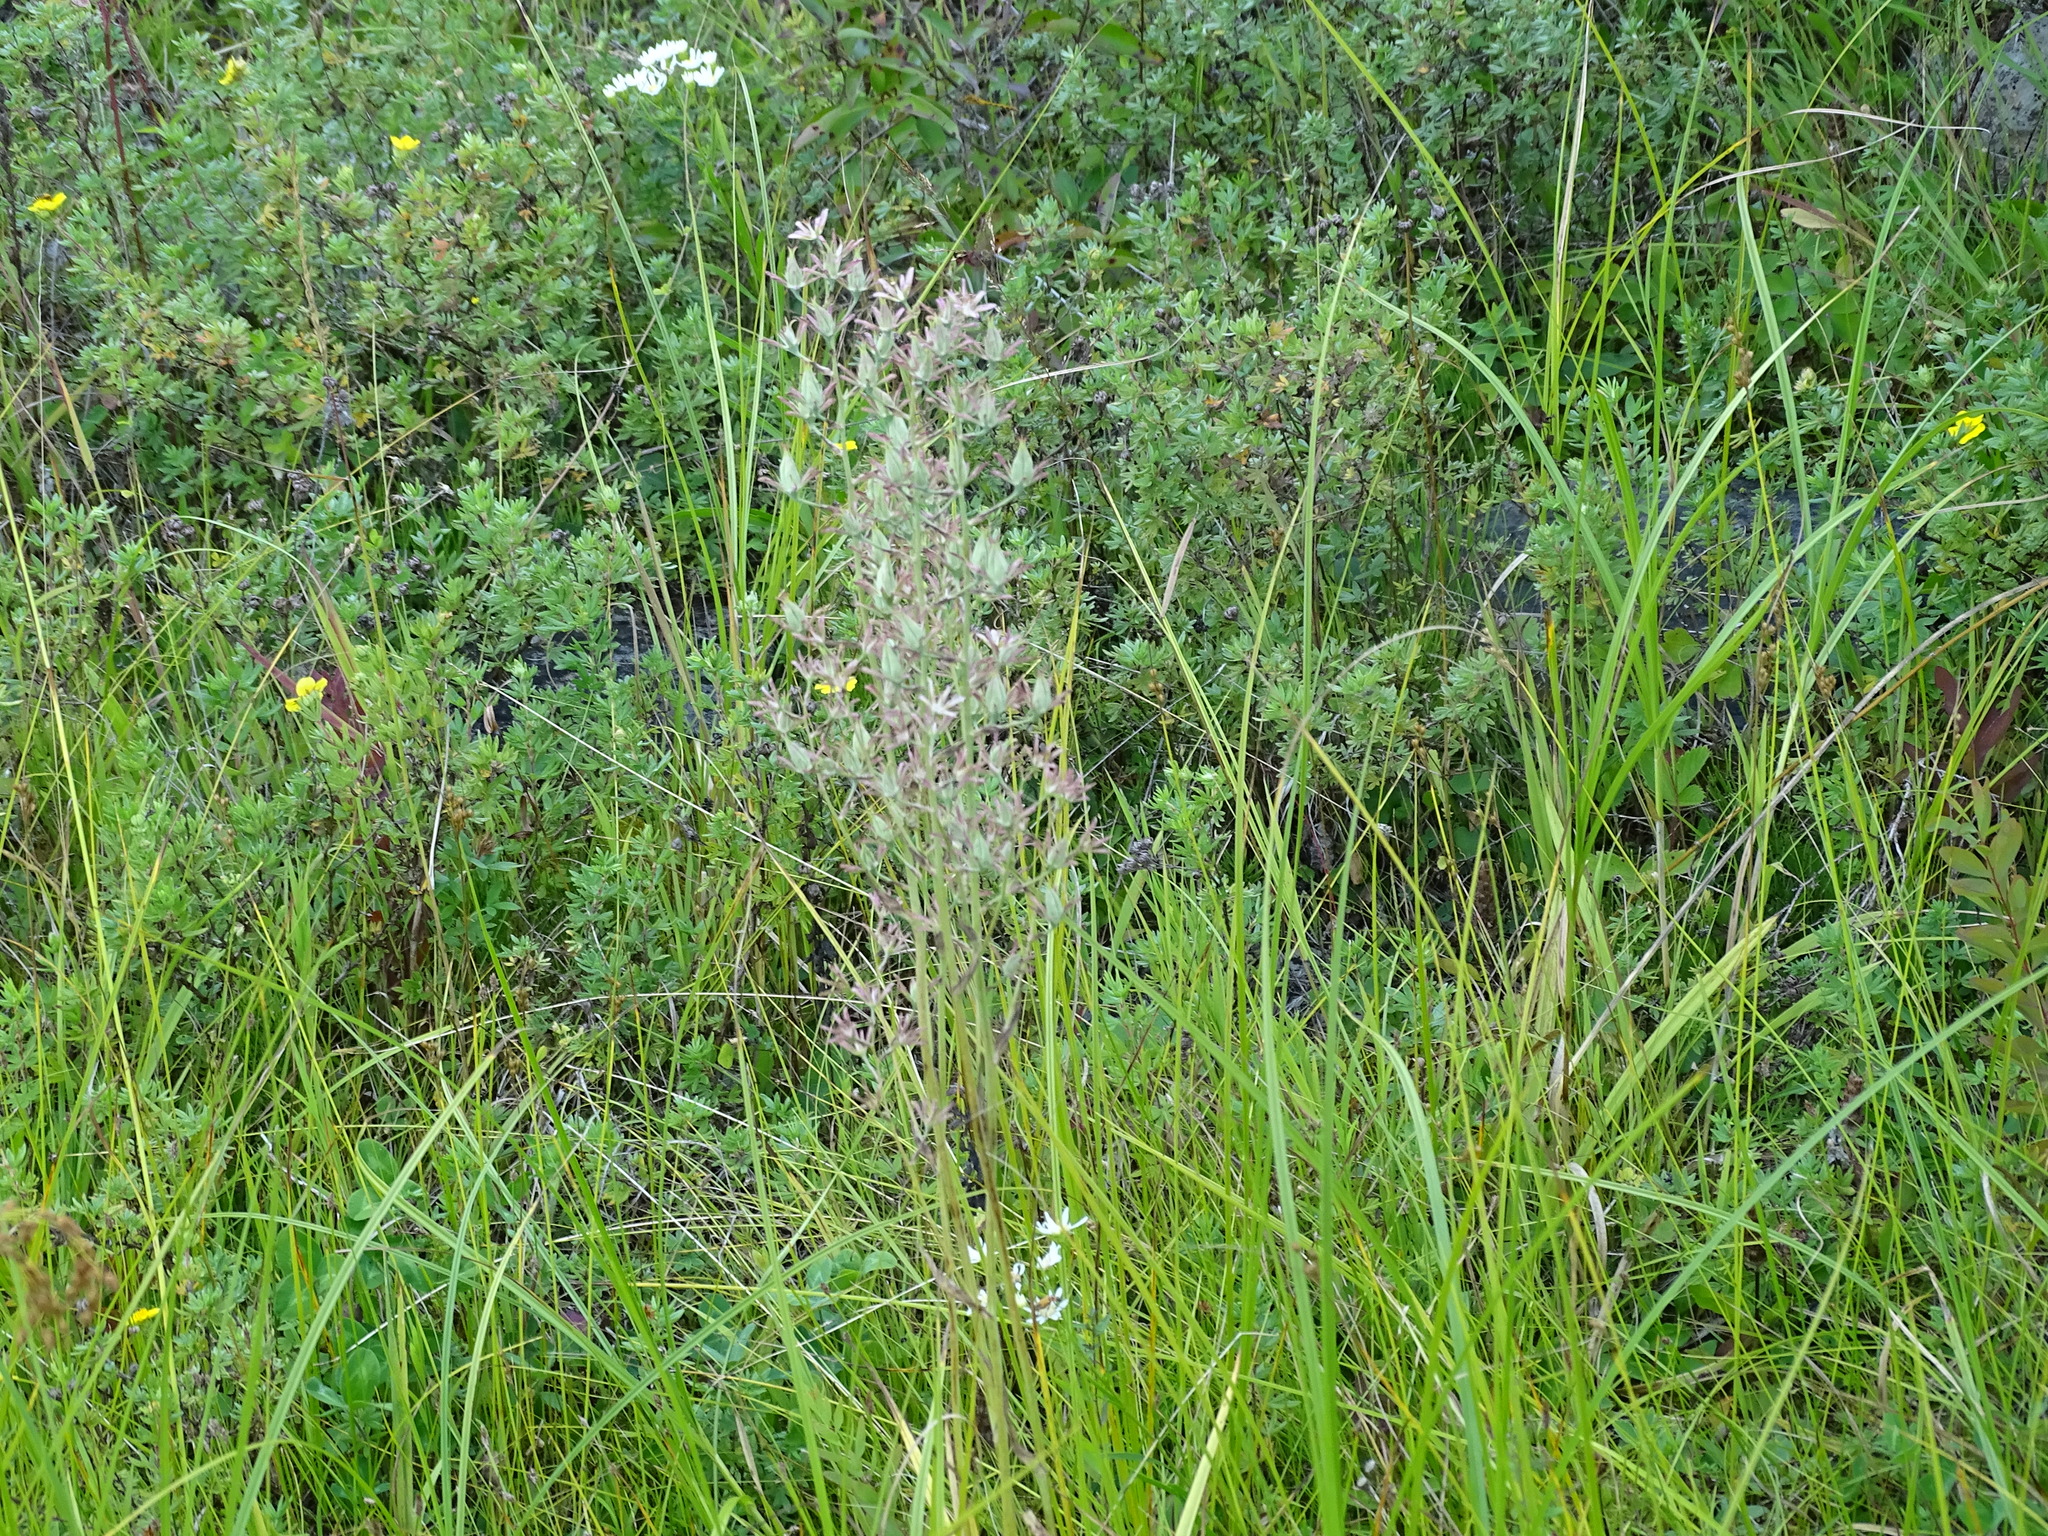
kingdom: Plantae
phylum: Tracheophyta
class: Liliopsida
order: Liliales
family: Melanthiaceae
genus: Anticlea
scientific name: Anticlea elegans
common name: Mountain death camas
